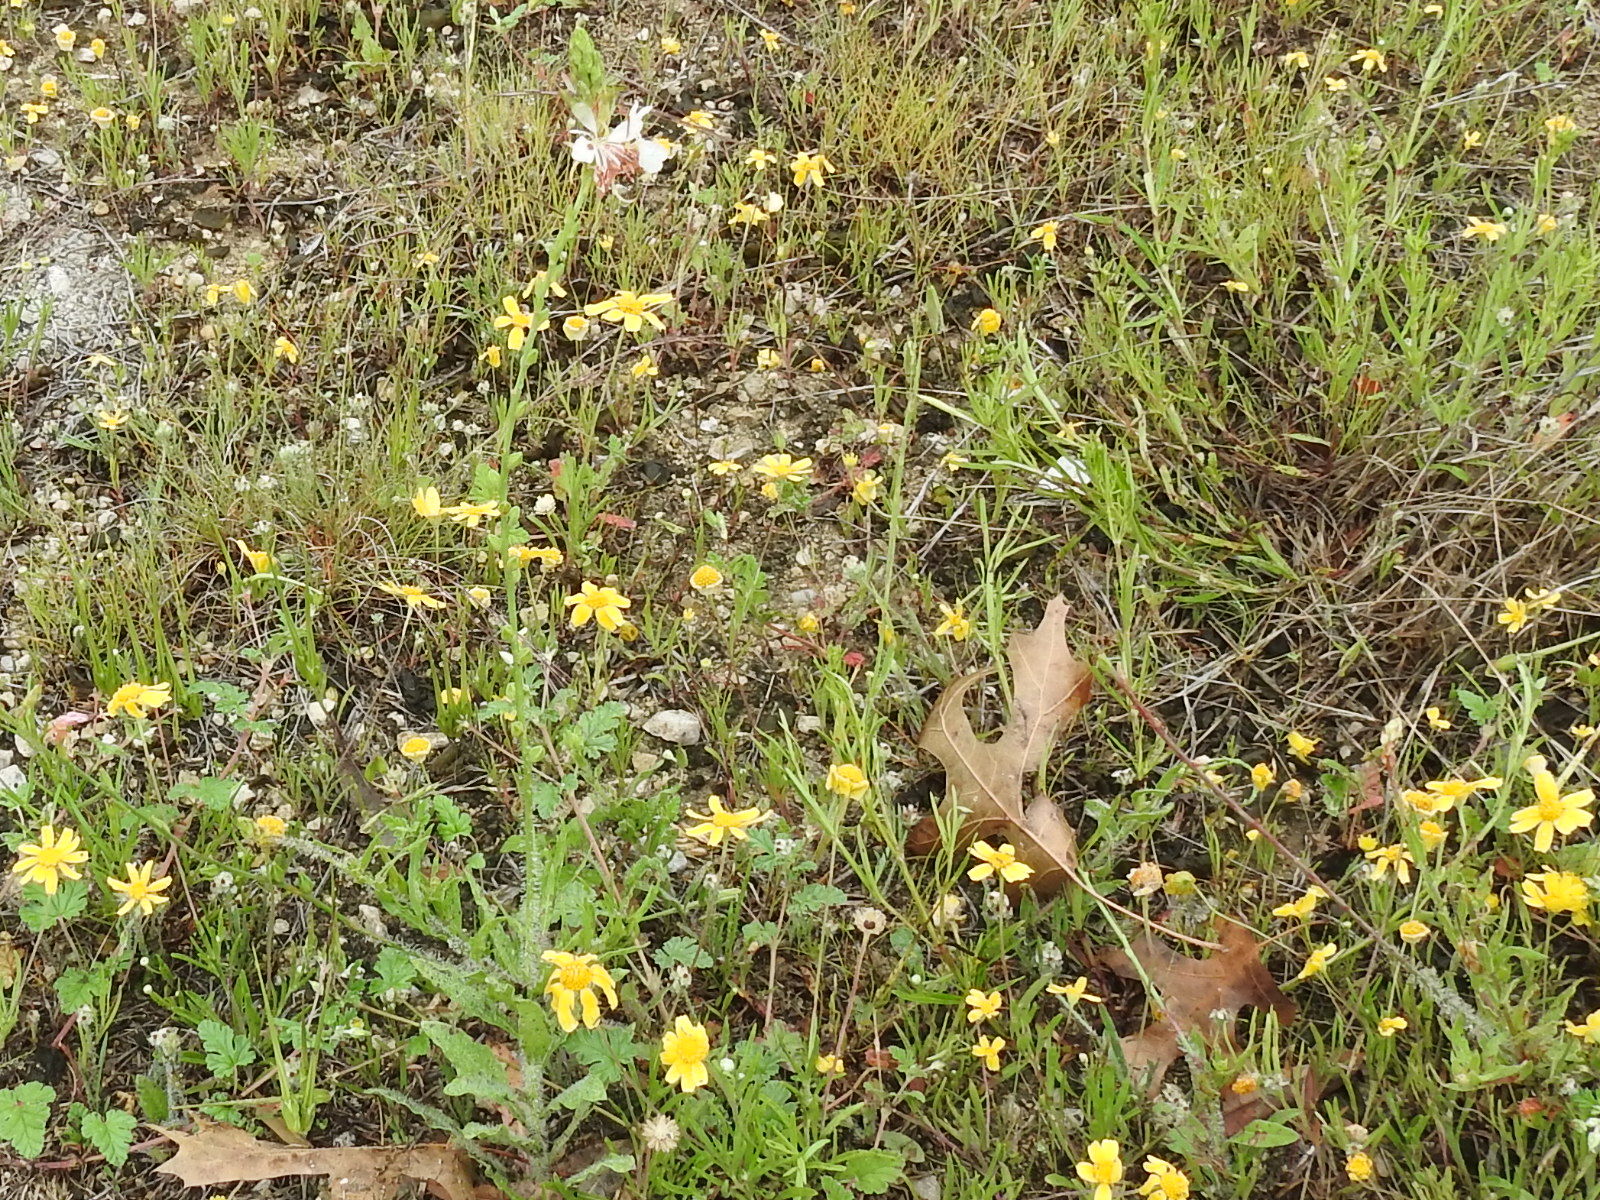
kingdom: Plantae
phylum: Tracheophyta
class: Magnoliopsida
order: Myrtales
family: Onagraceae
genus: Oenothera
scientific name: Oenothera suffulta
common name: Kisses
